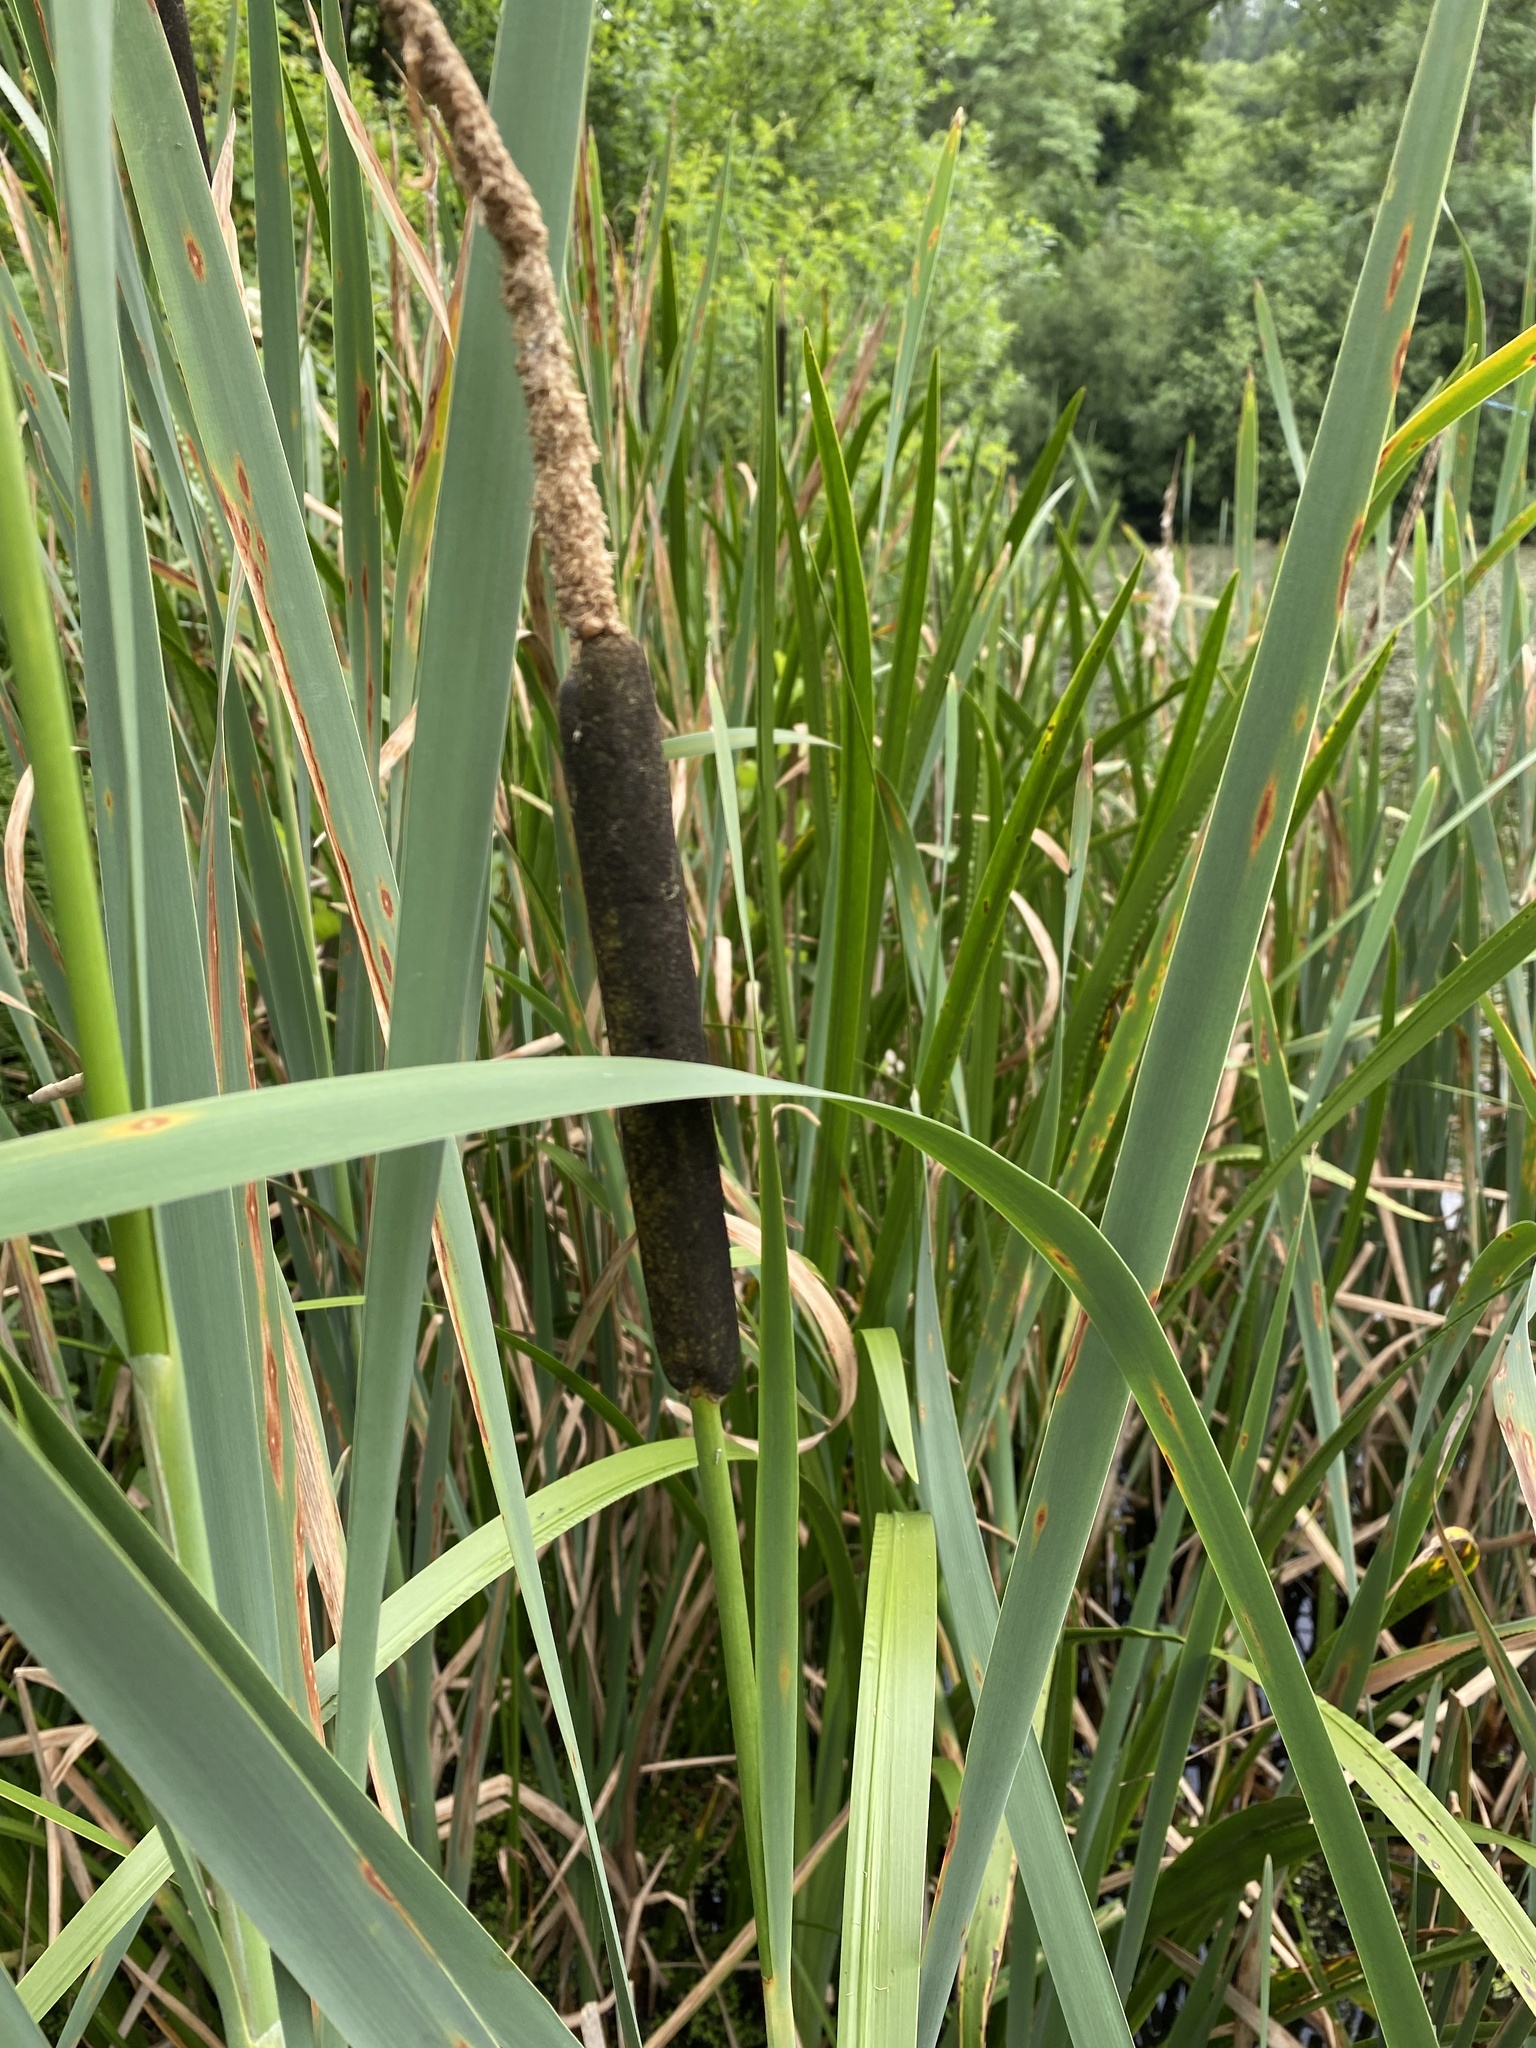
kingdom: Plantae
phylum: Tracheophyta
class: Liliopsida
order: Poales
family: Typhaceae
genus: Typha
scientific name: Typha latifolia
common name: Broadleaf cattail
